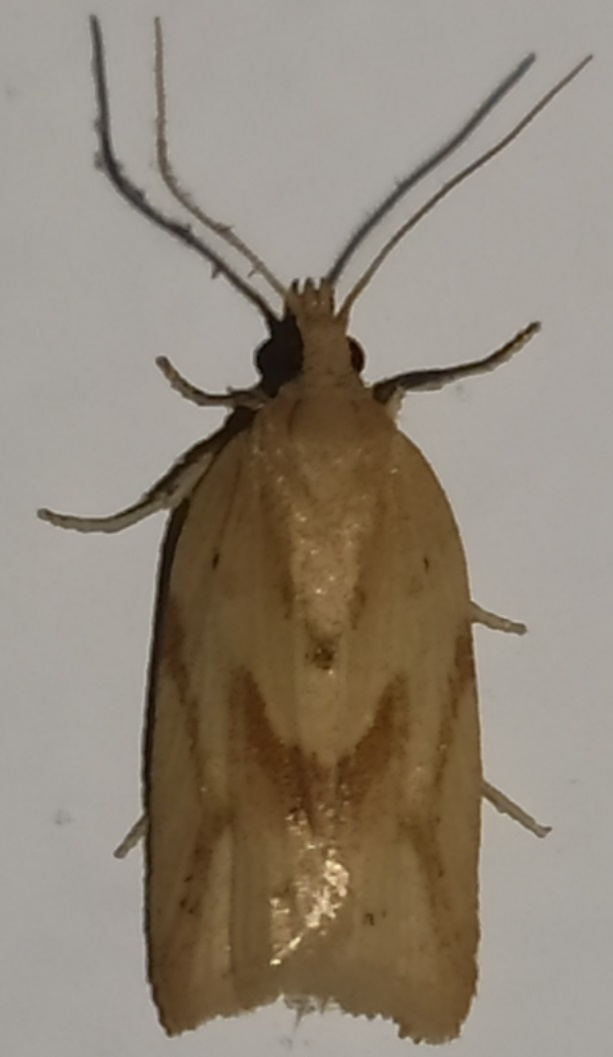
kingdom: Animalia
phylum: Arthropoda
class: Insecta
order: Lepidoptera
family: Tortricidae
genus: Clepsis
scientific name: Clepsis coriacana
